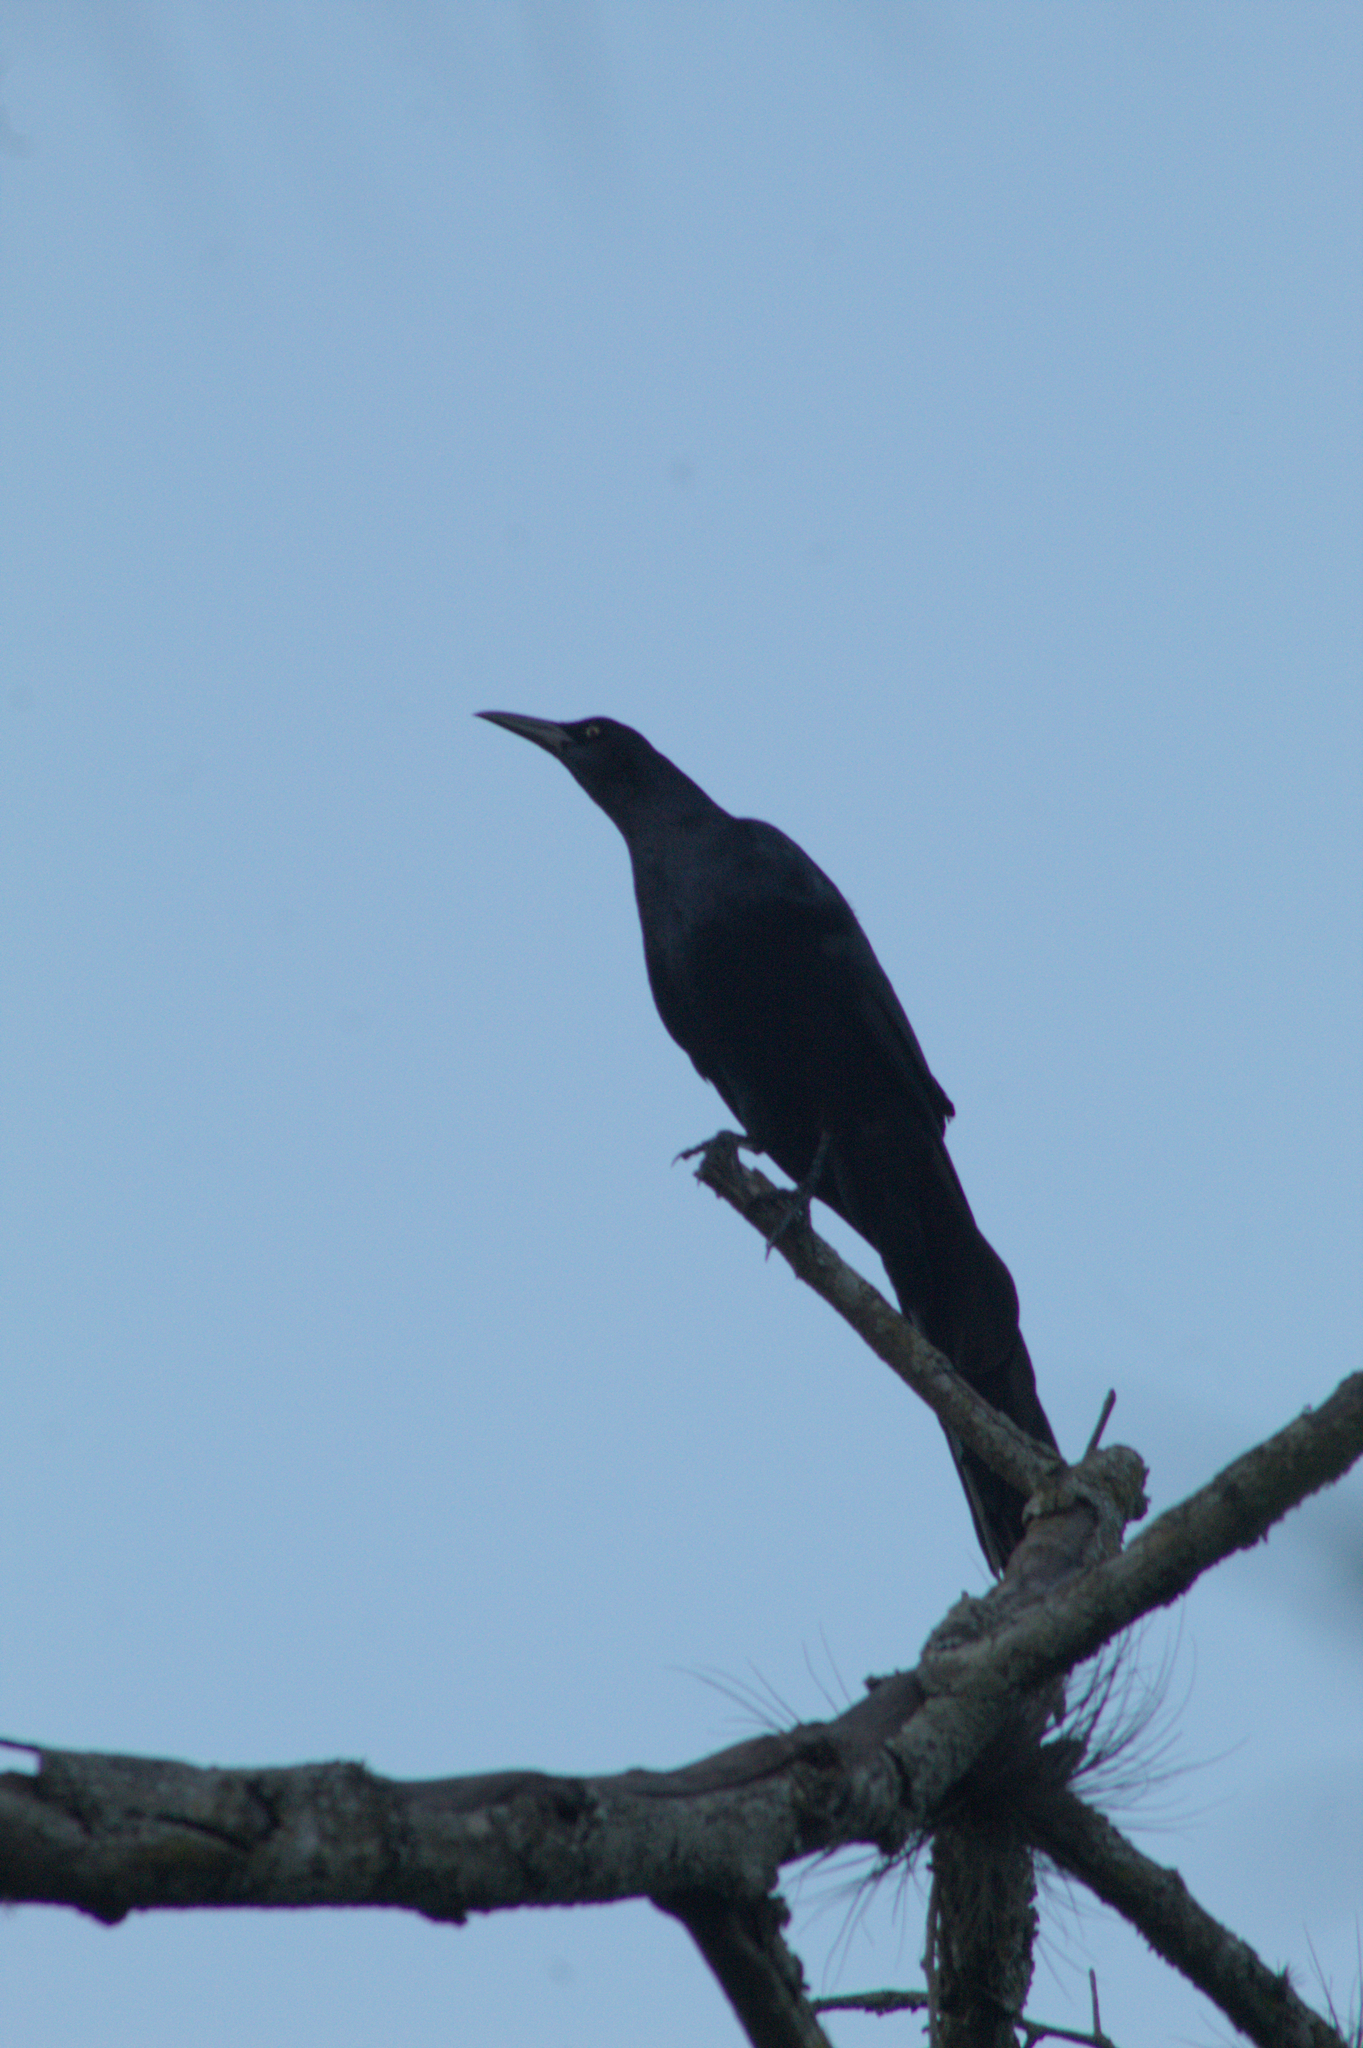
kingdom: Animalia
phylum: Chordata
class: Aves
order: Passeriformes
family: Icteridae
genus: Quiscalus
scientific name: Quiscalus mexicanus
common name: Great-tailed grackle
